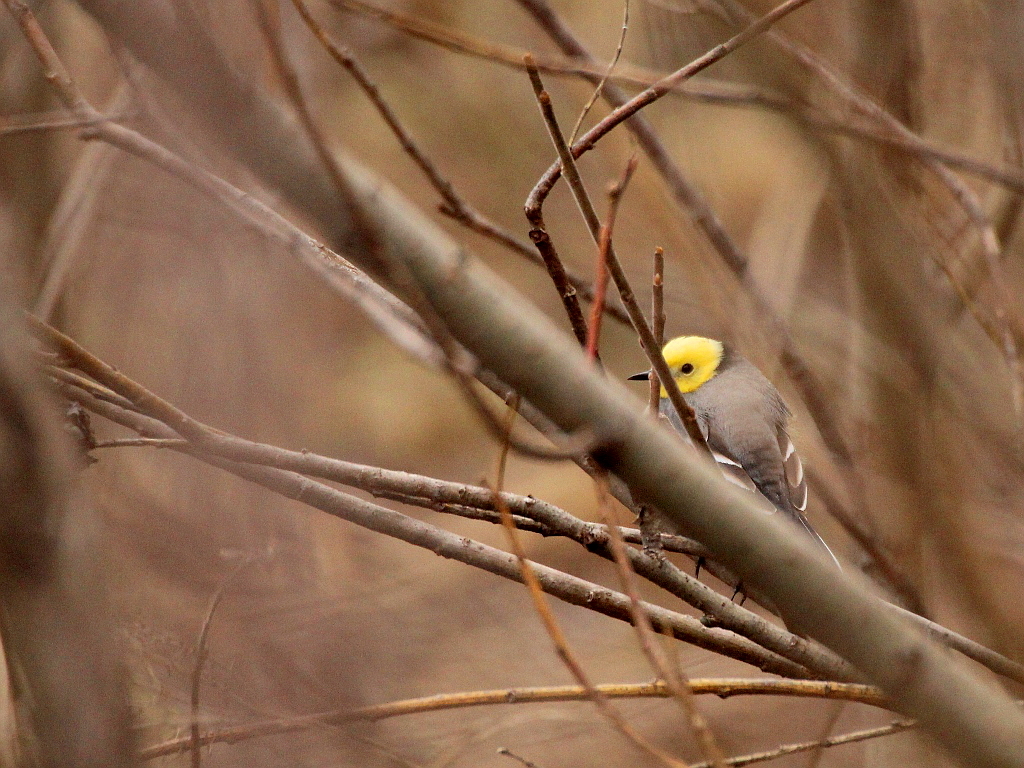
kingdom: Animalia
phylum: Chordata
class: Aves
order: Passeriformes
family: Motacillidae
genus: Motacilla
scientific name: Motacilla citreola
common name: Citrine wagtail
